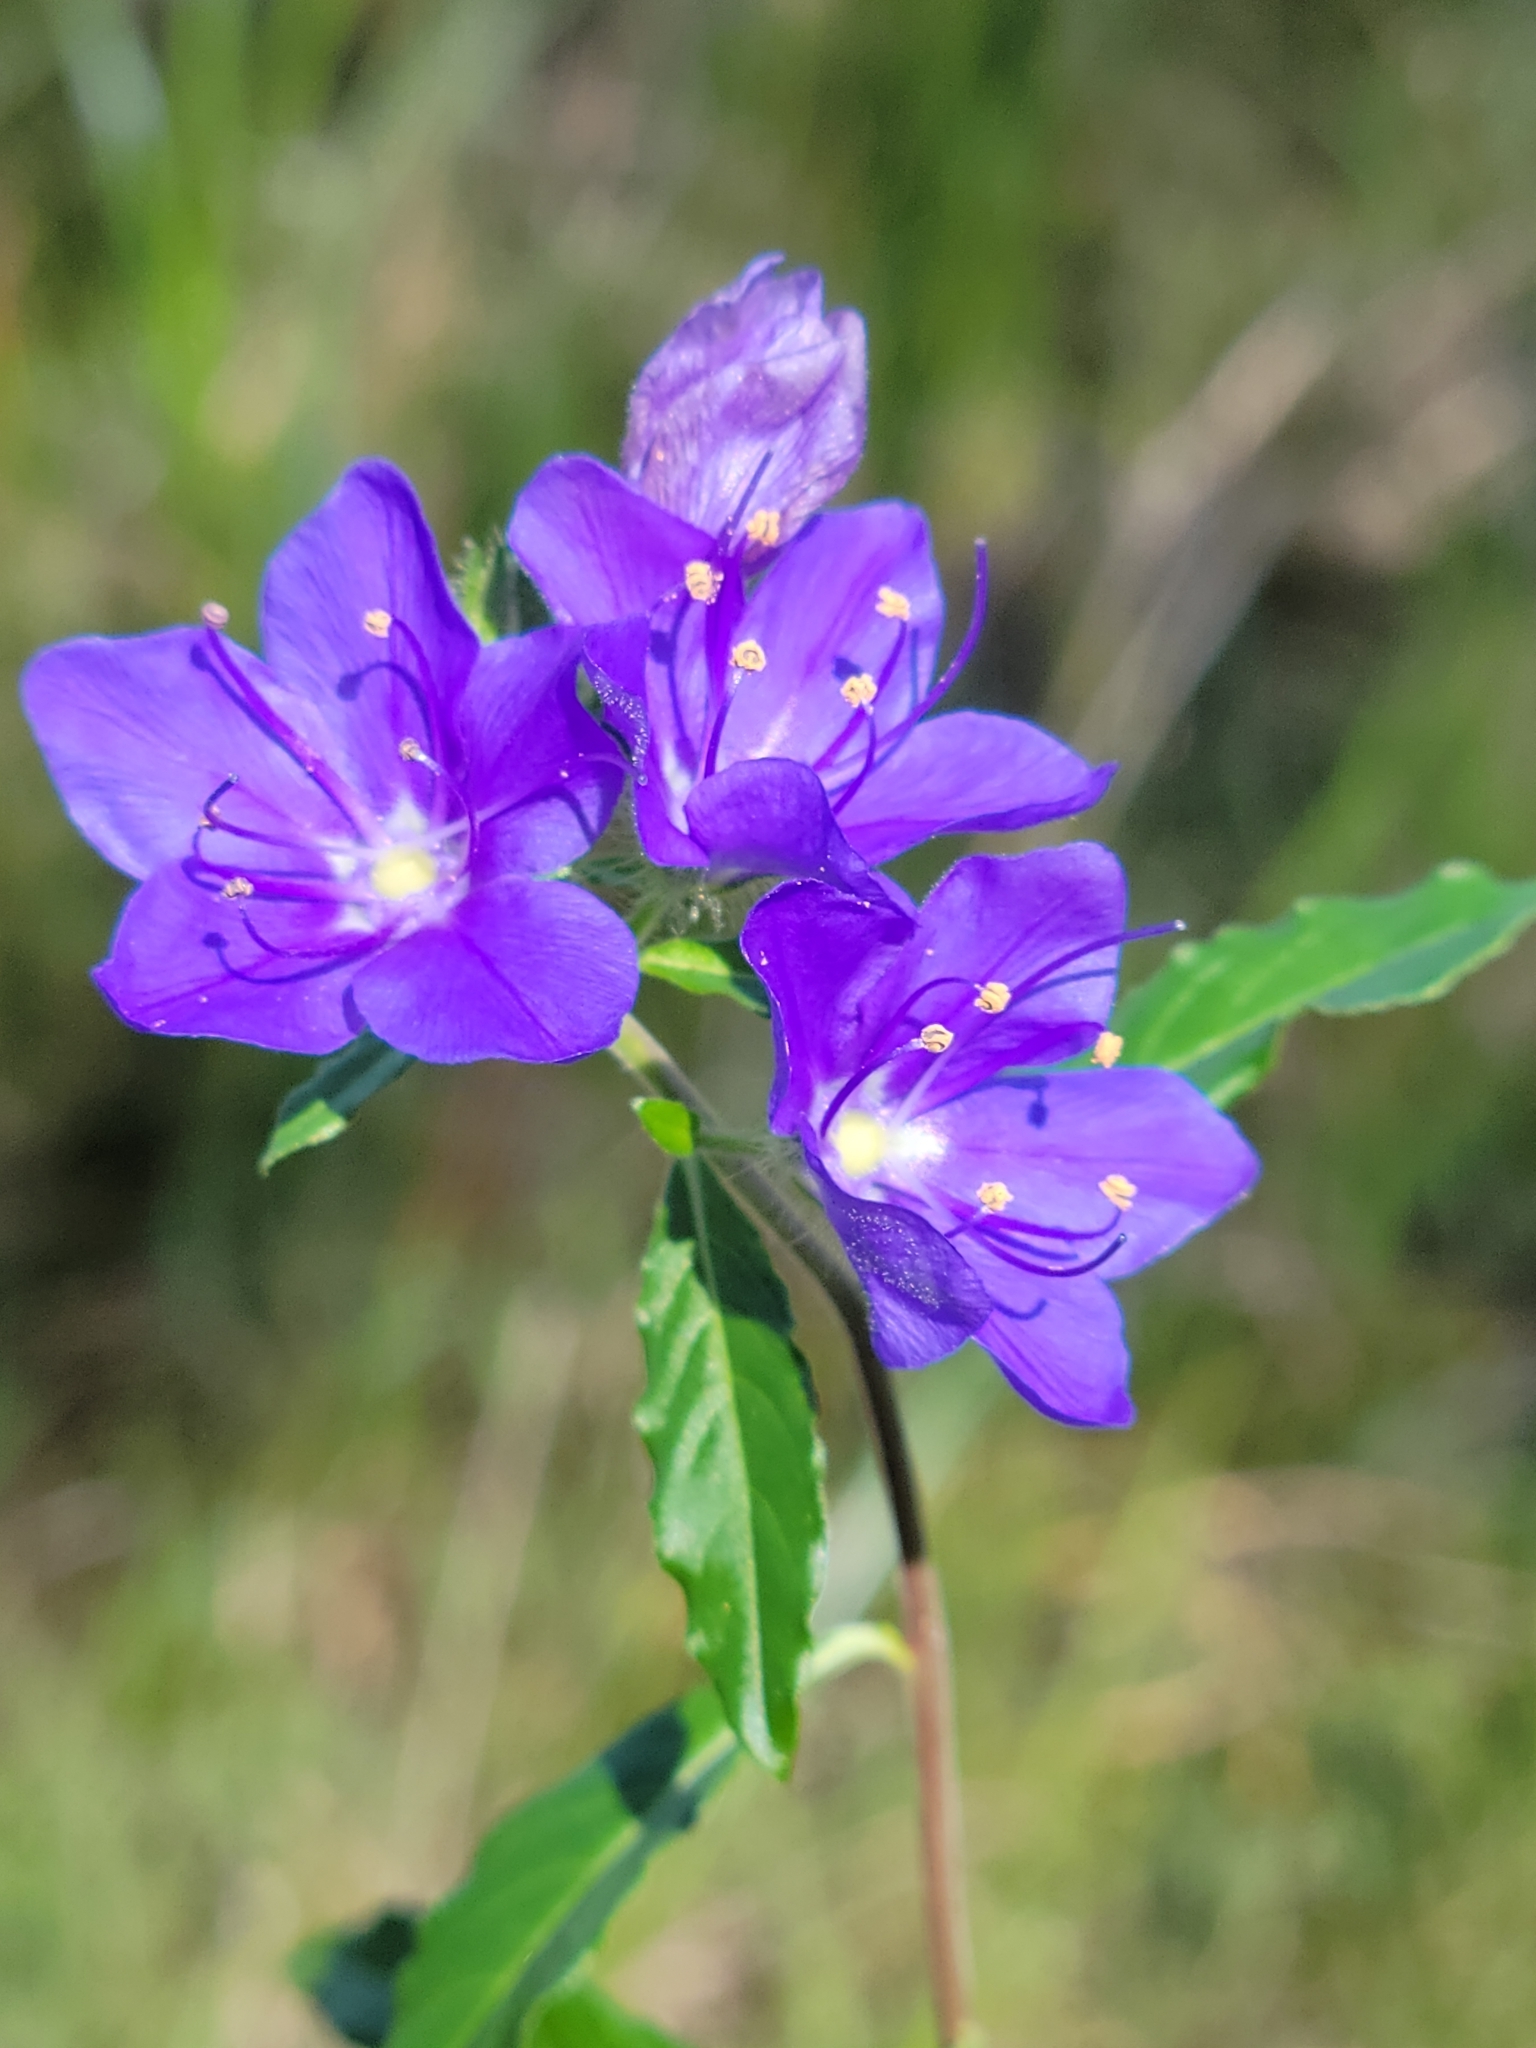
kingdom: Plantae
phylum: Tracheophyta
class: Magnoliopsida
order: Solanales
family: Hydroleaceae
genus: Hydrolea
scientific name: Hydrolea corymbosa
